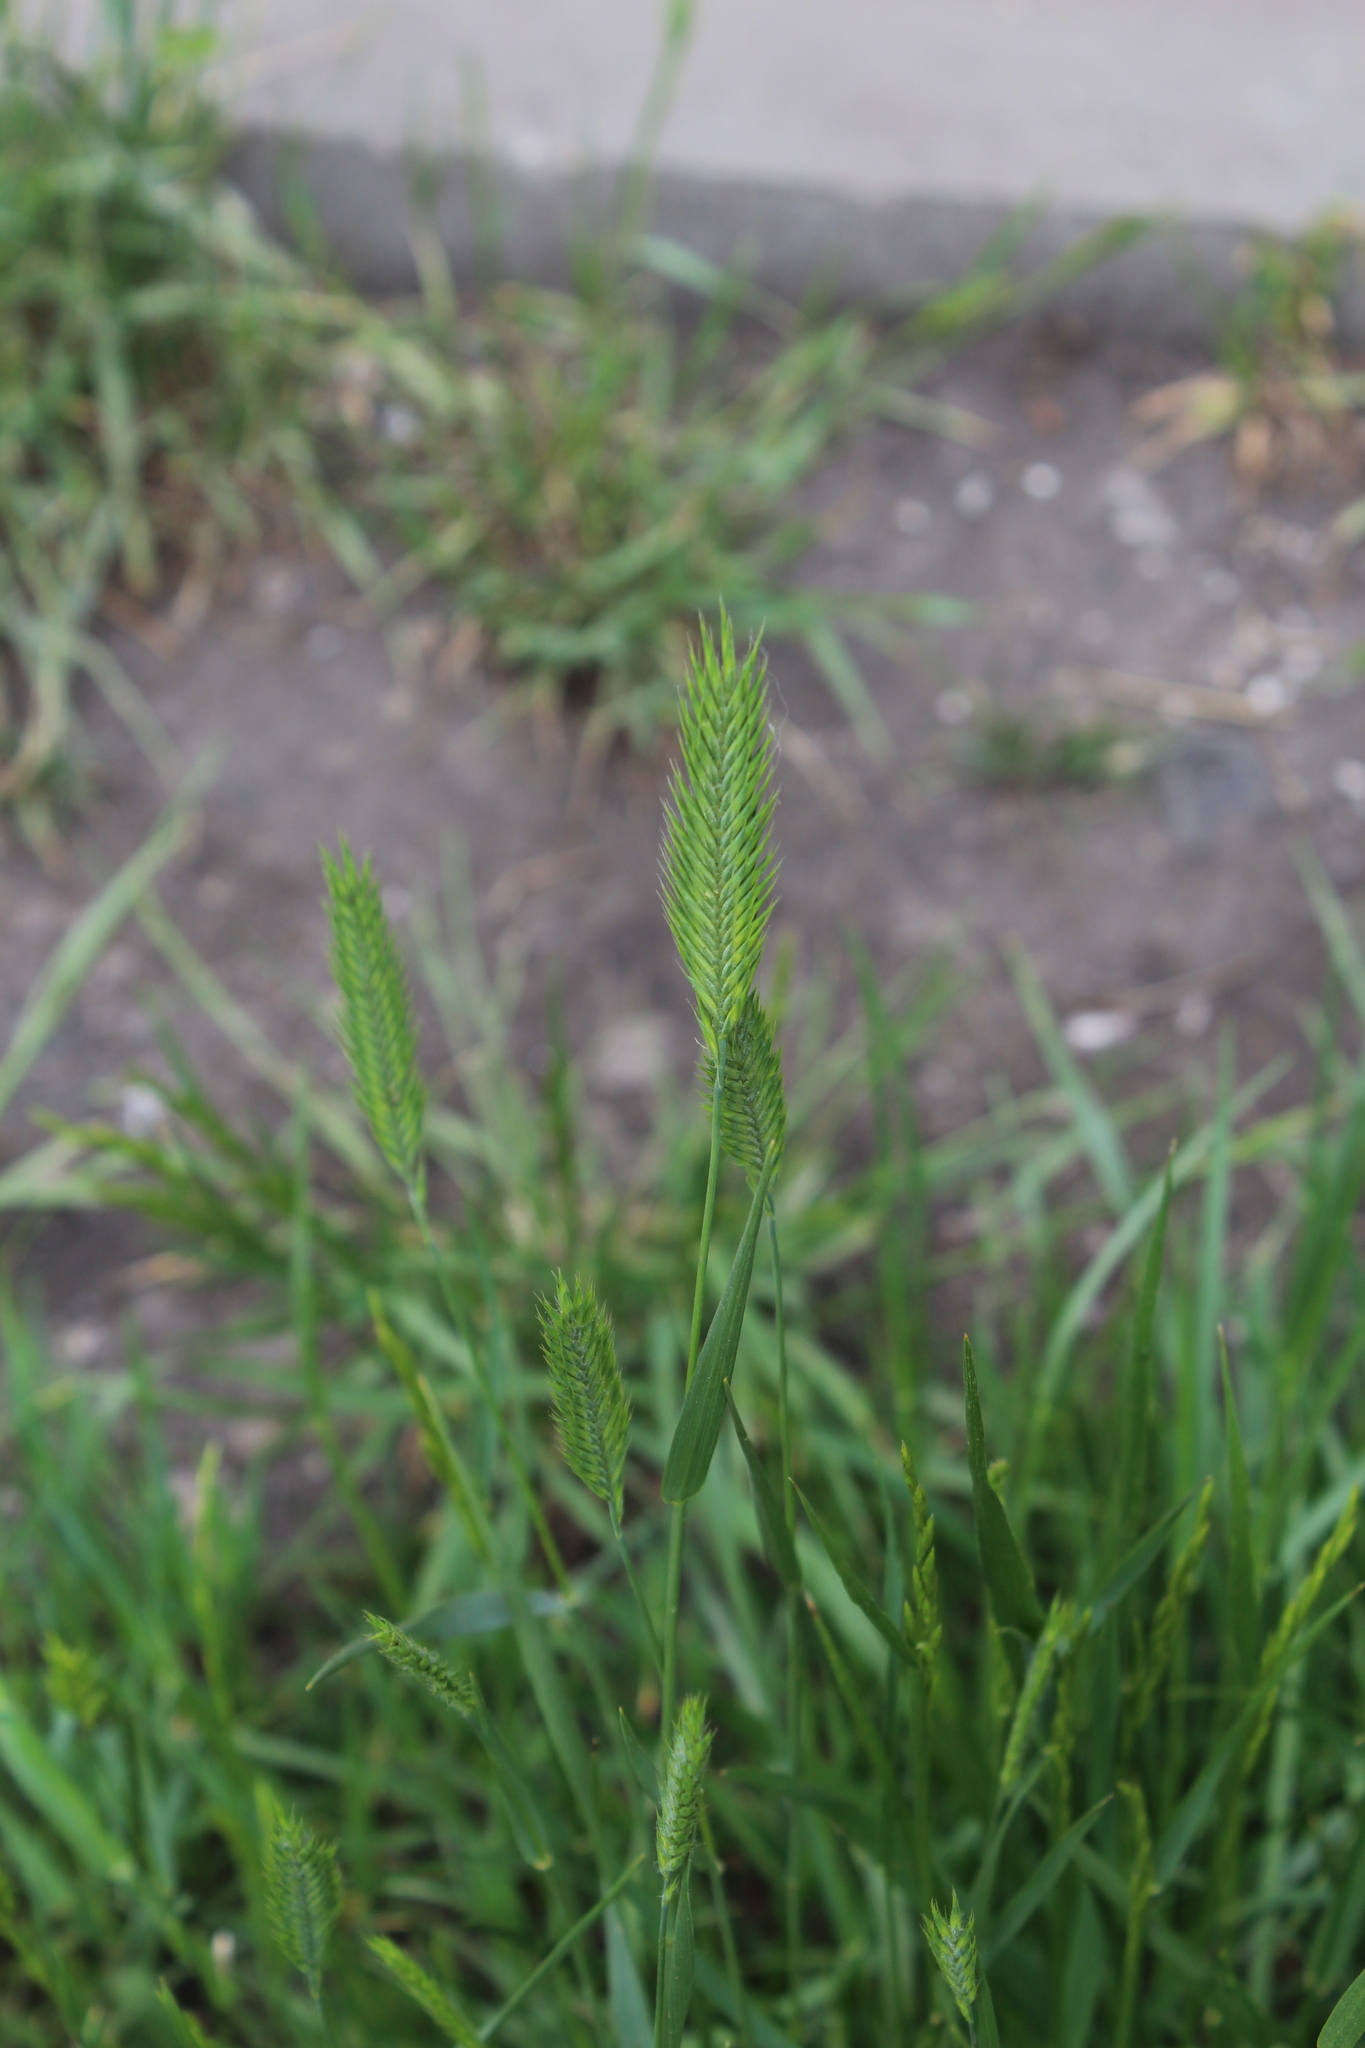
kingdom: Plantae
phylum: Tracheophyta
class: Liliopsida
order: Poales
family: Poaceae
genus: Agropyron
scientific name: Agropyron cristatum
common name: Crested wheatgrass
